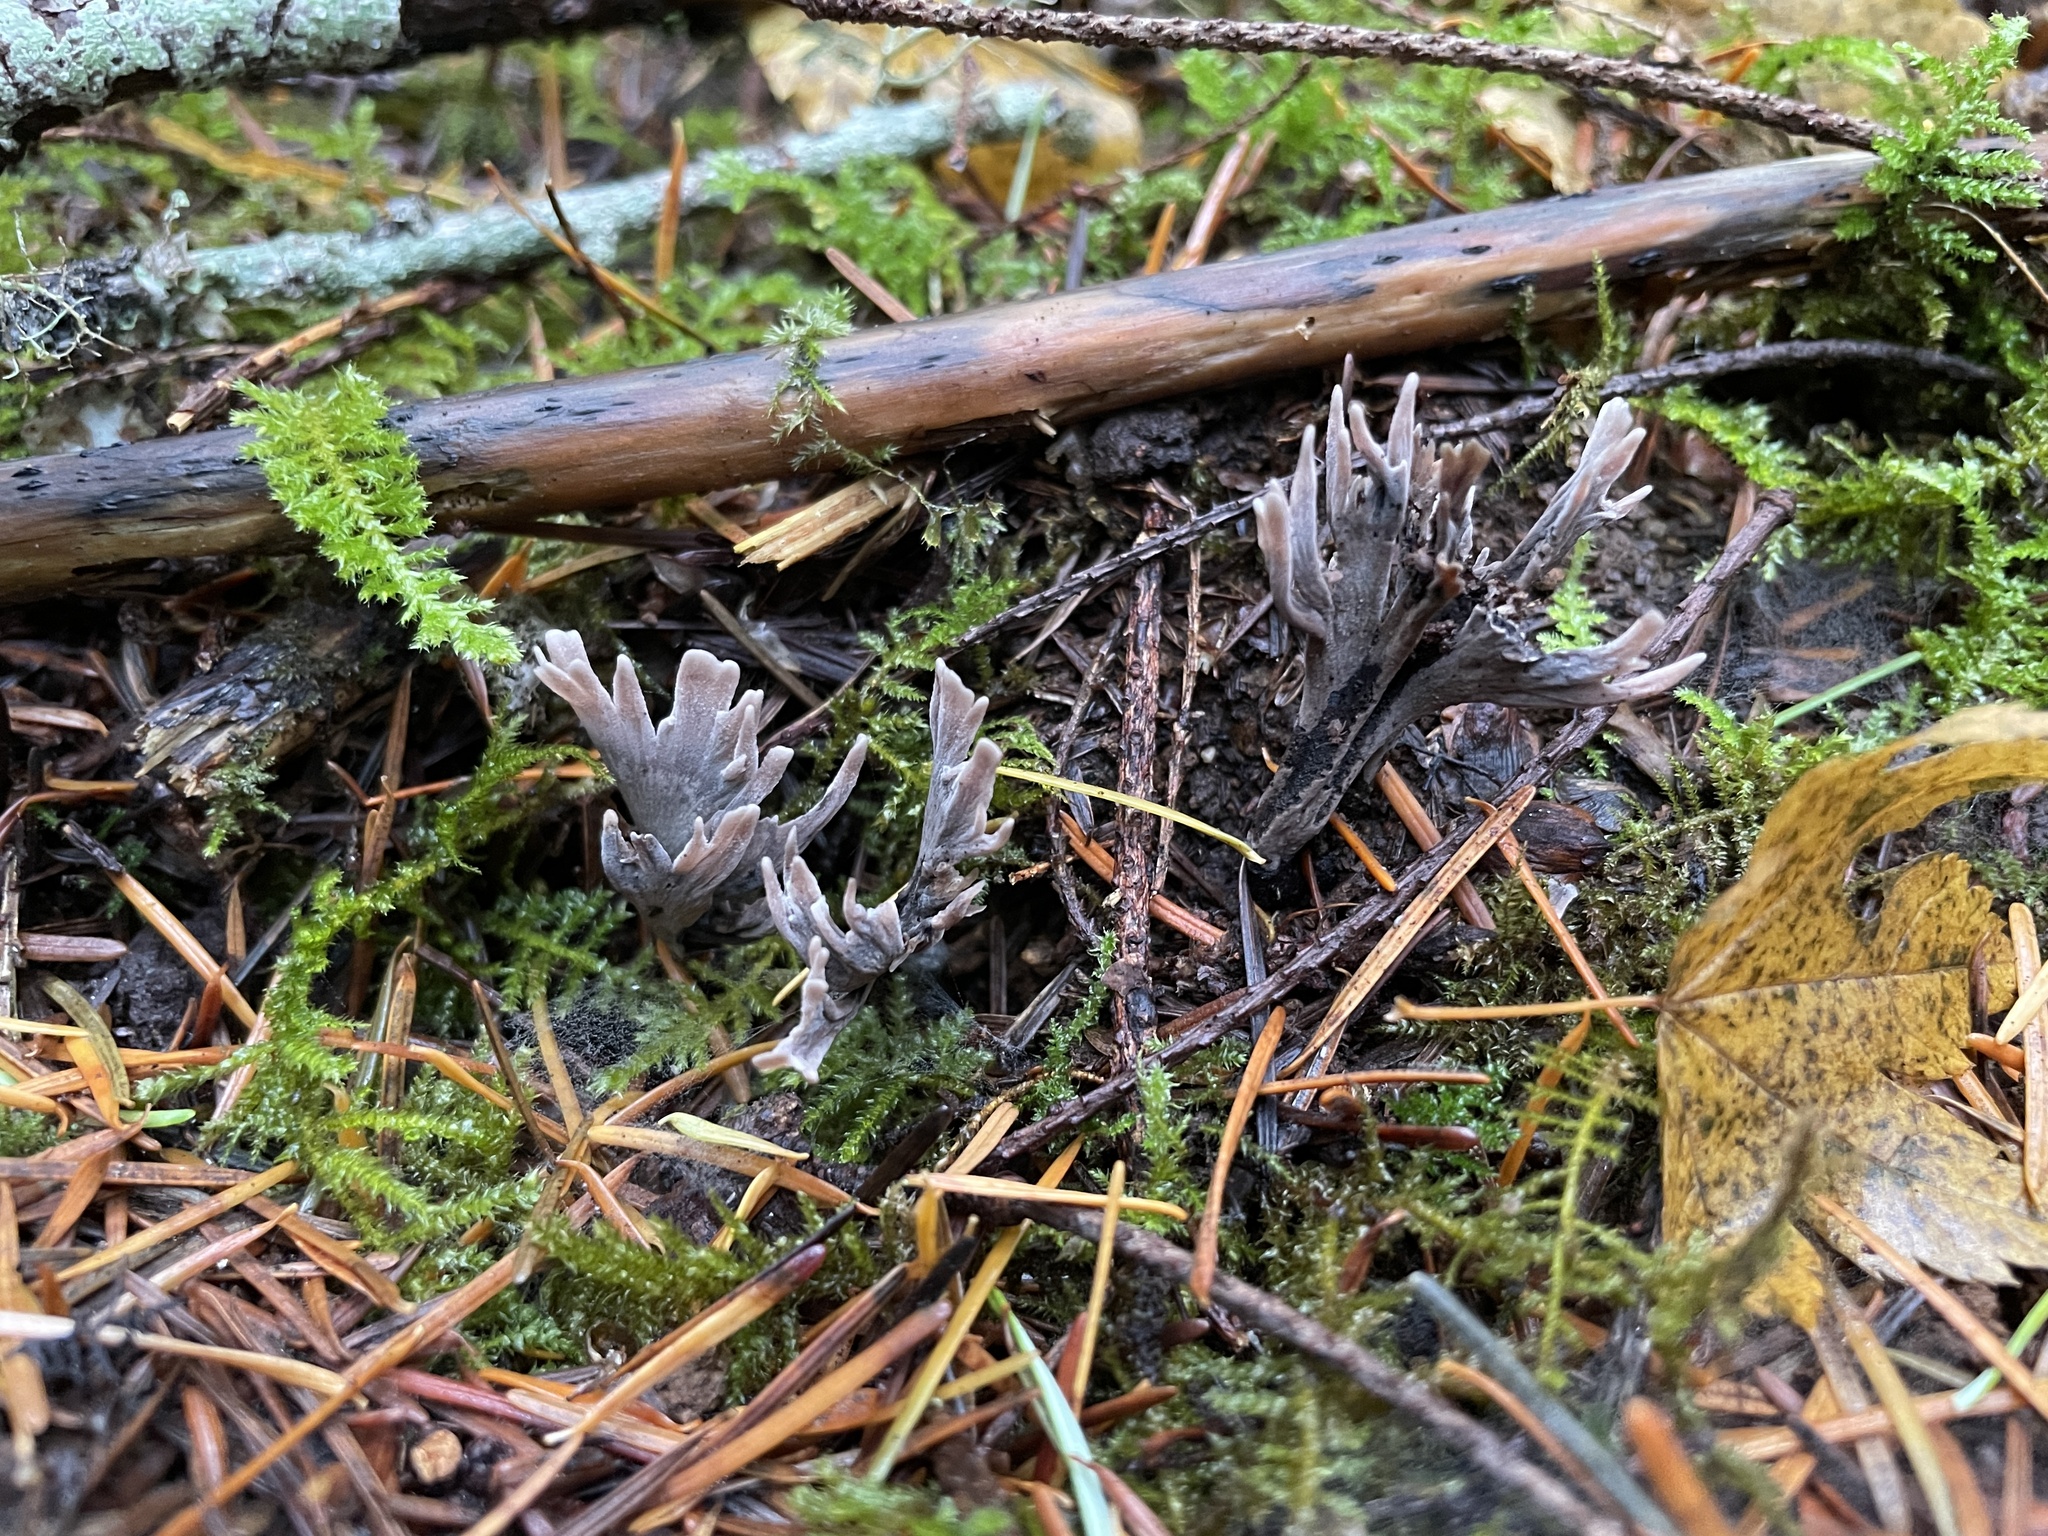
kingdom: Fungi
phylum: Basidiomycota
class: Agaricomycetes
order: Thelephorales
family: Thelephoraceae
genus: Thelephora
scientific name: Thelephora palmata
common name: Stinking earthfan
